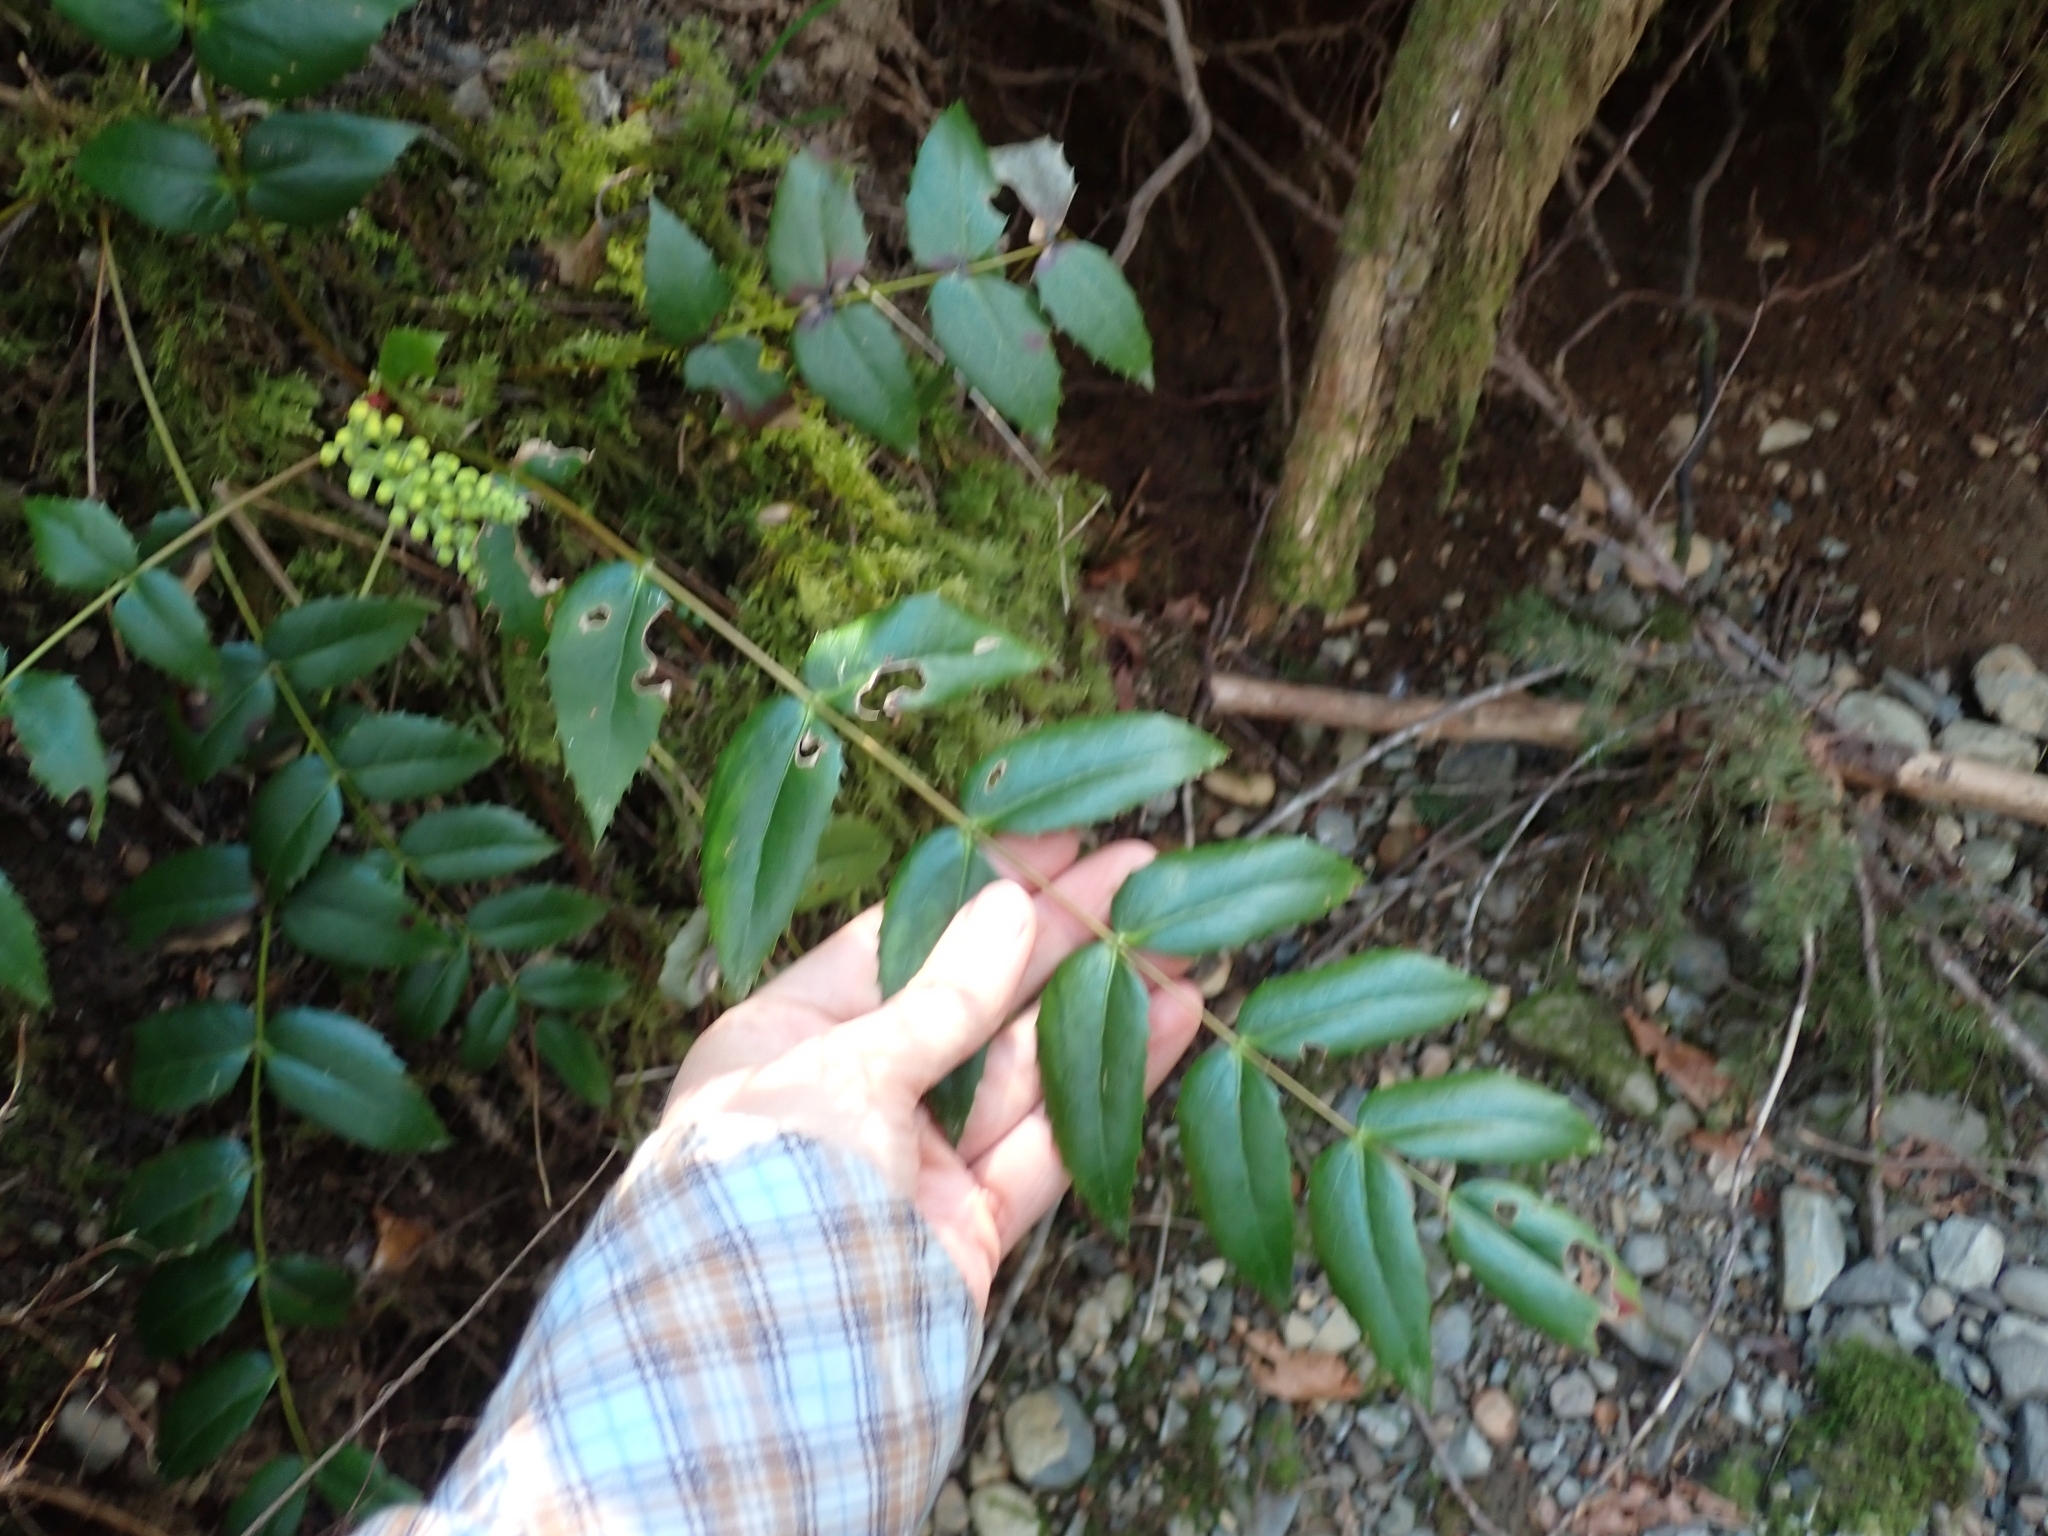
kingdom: Plantae
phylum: Tracheophyta
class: Magnoliopsida
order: Ranunculales
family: Berberidaceae
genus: Mahonia
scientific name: Mahonia nervosa
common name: Cascade oregon-grape
